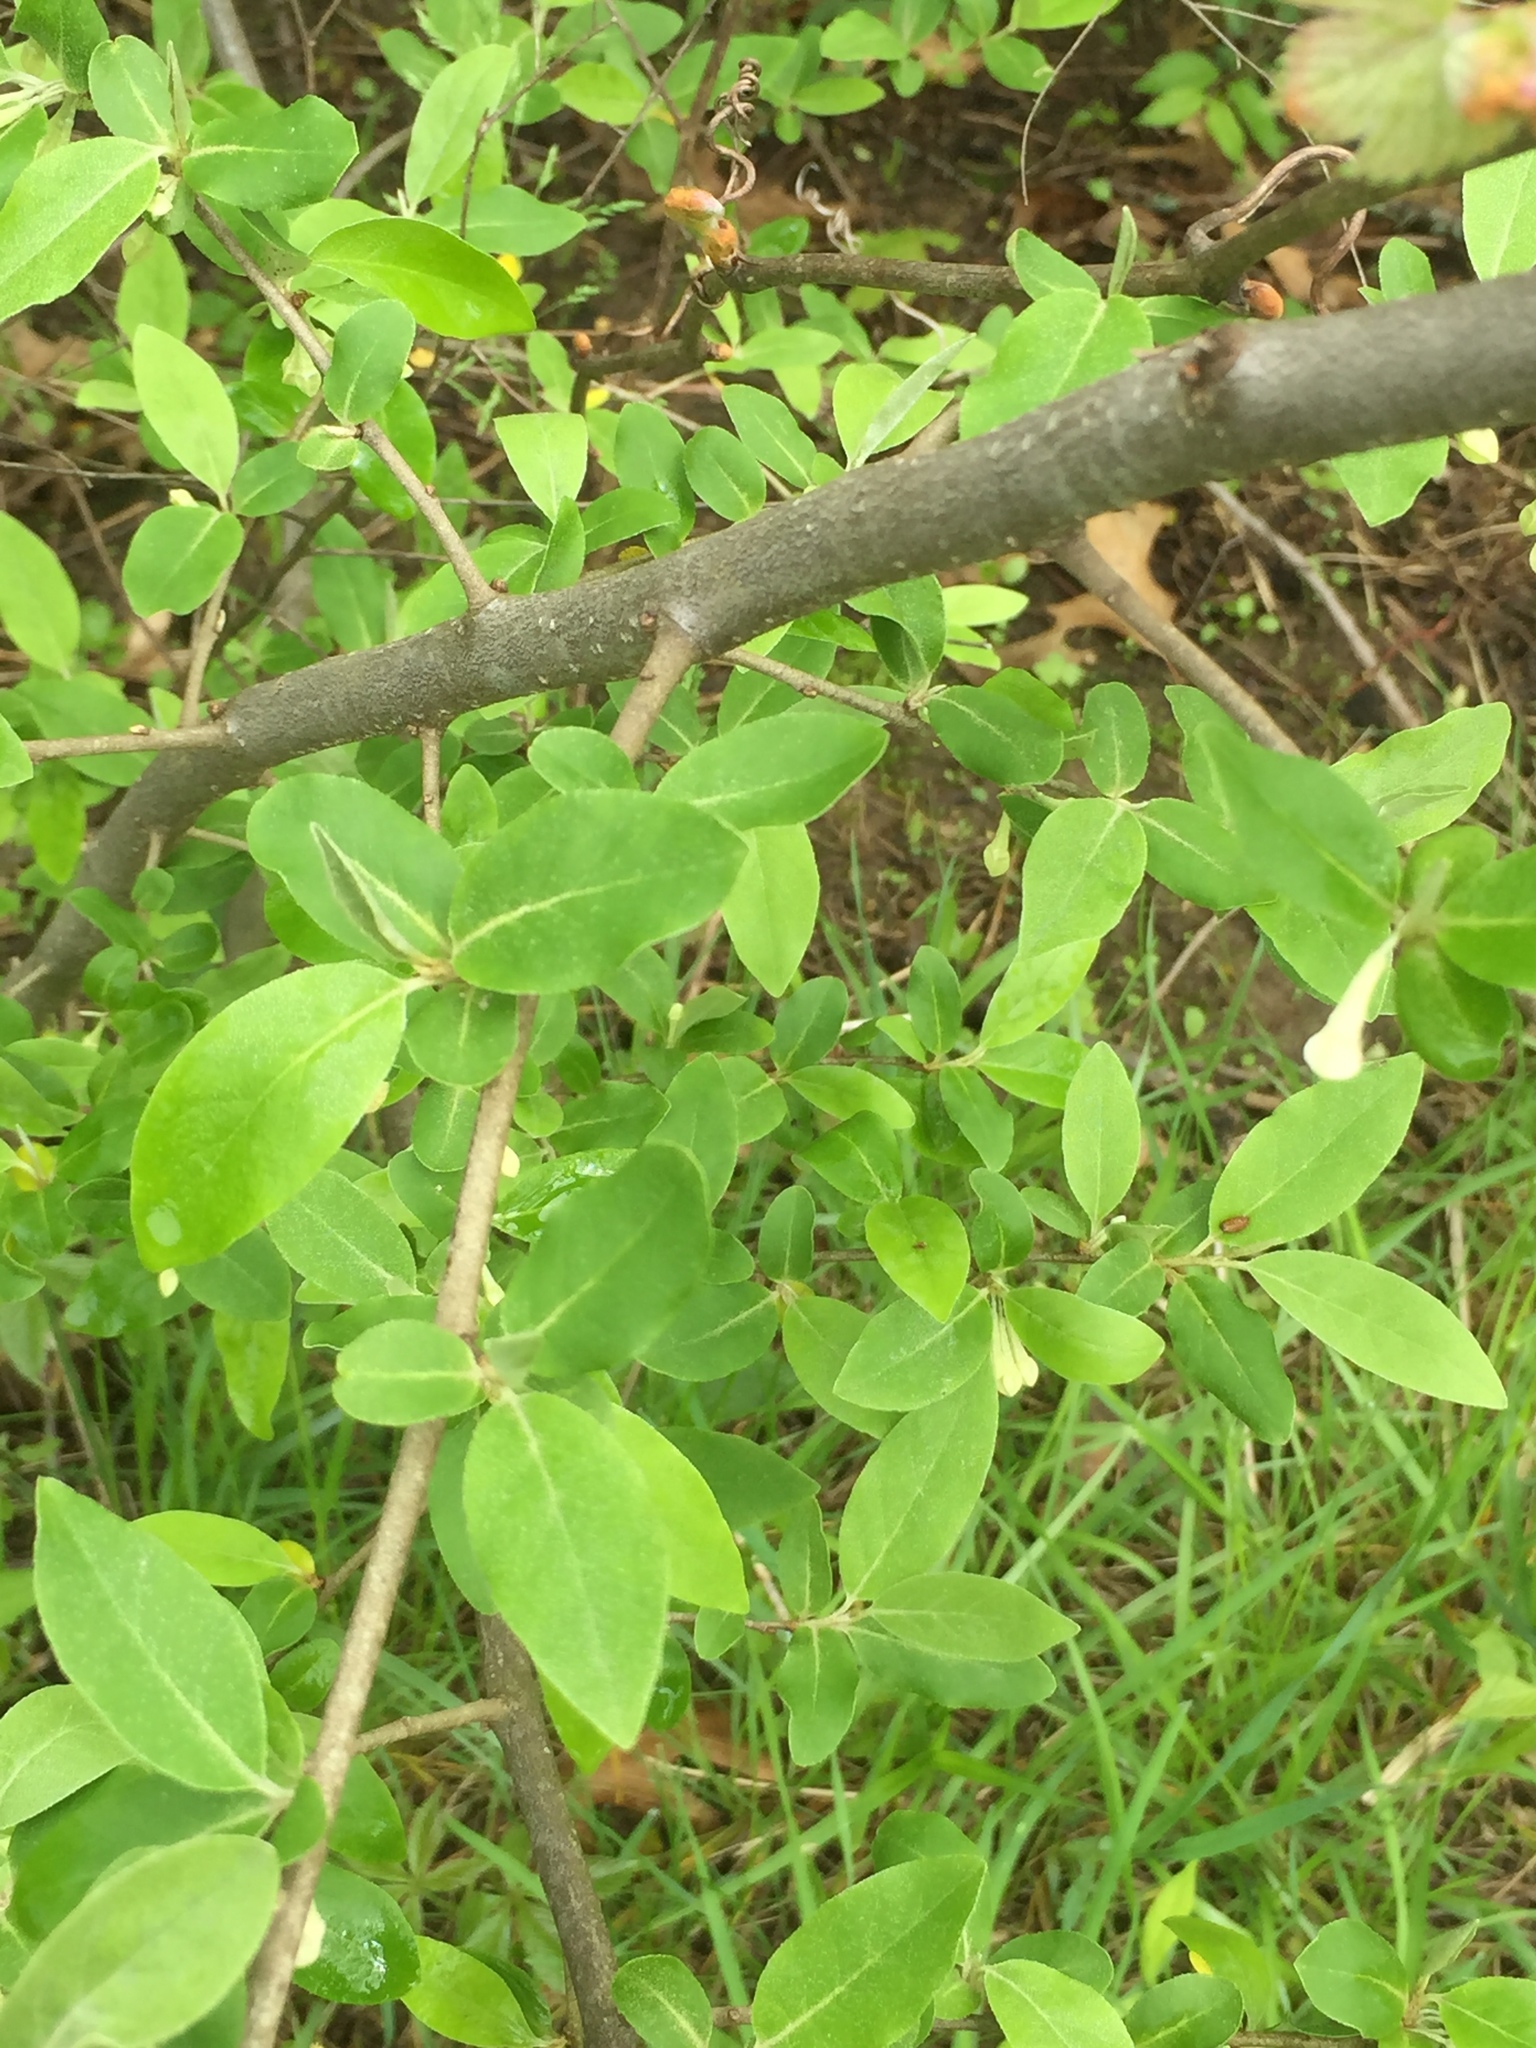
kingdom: Plantae
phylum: Tracheophyta
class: Magnoliopsida
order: Rosales
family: Elaeagnaceae
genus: Elaeagnus
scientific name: Elaeagnus umbellata
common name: Autumn olive
